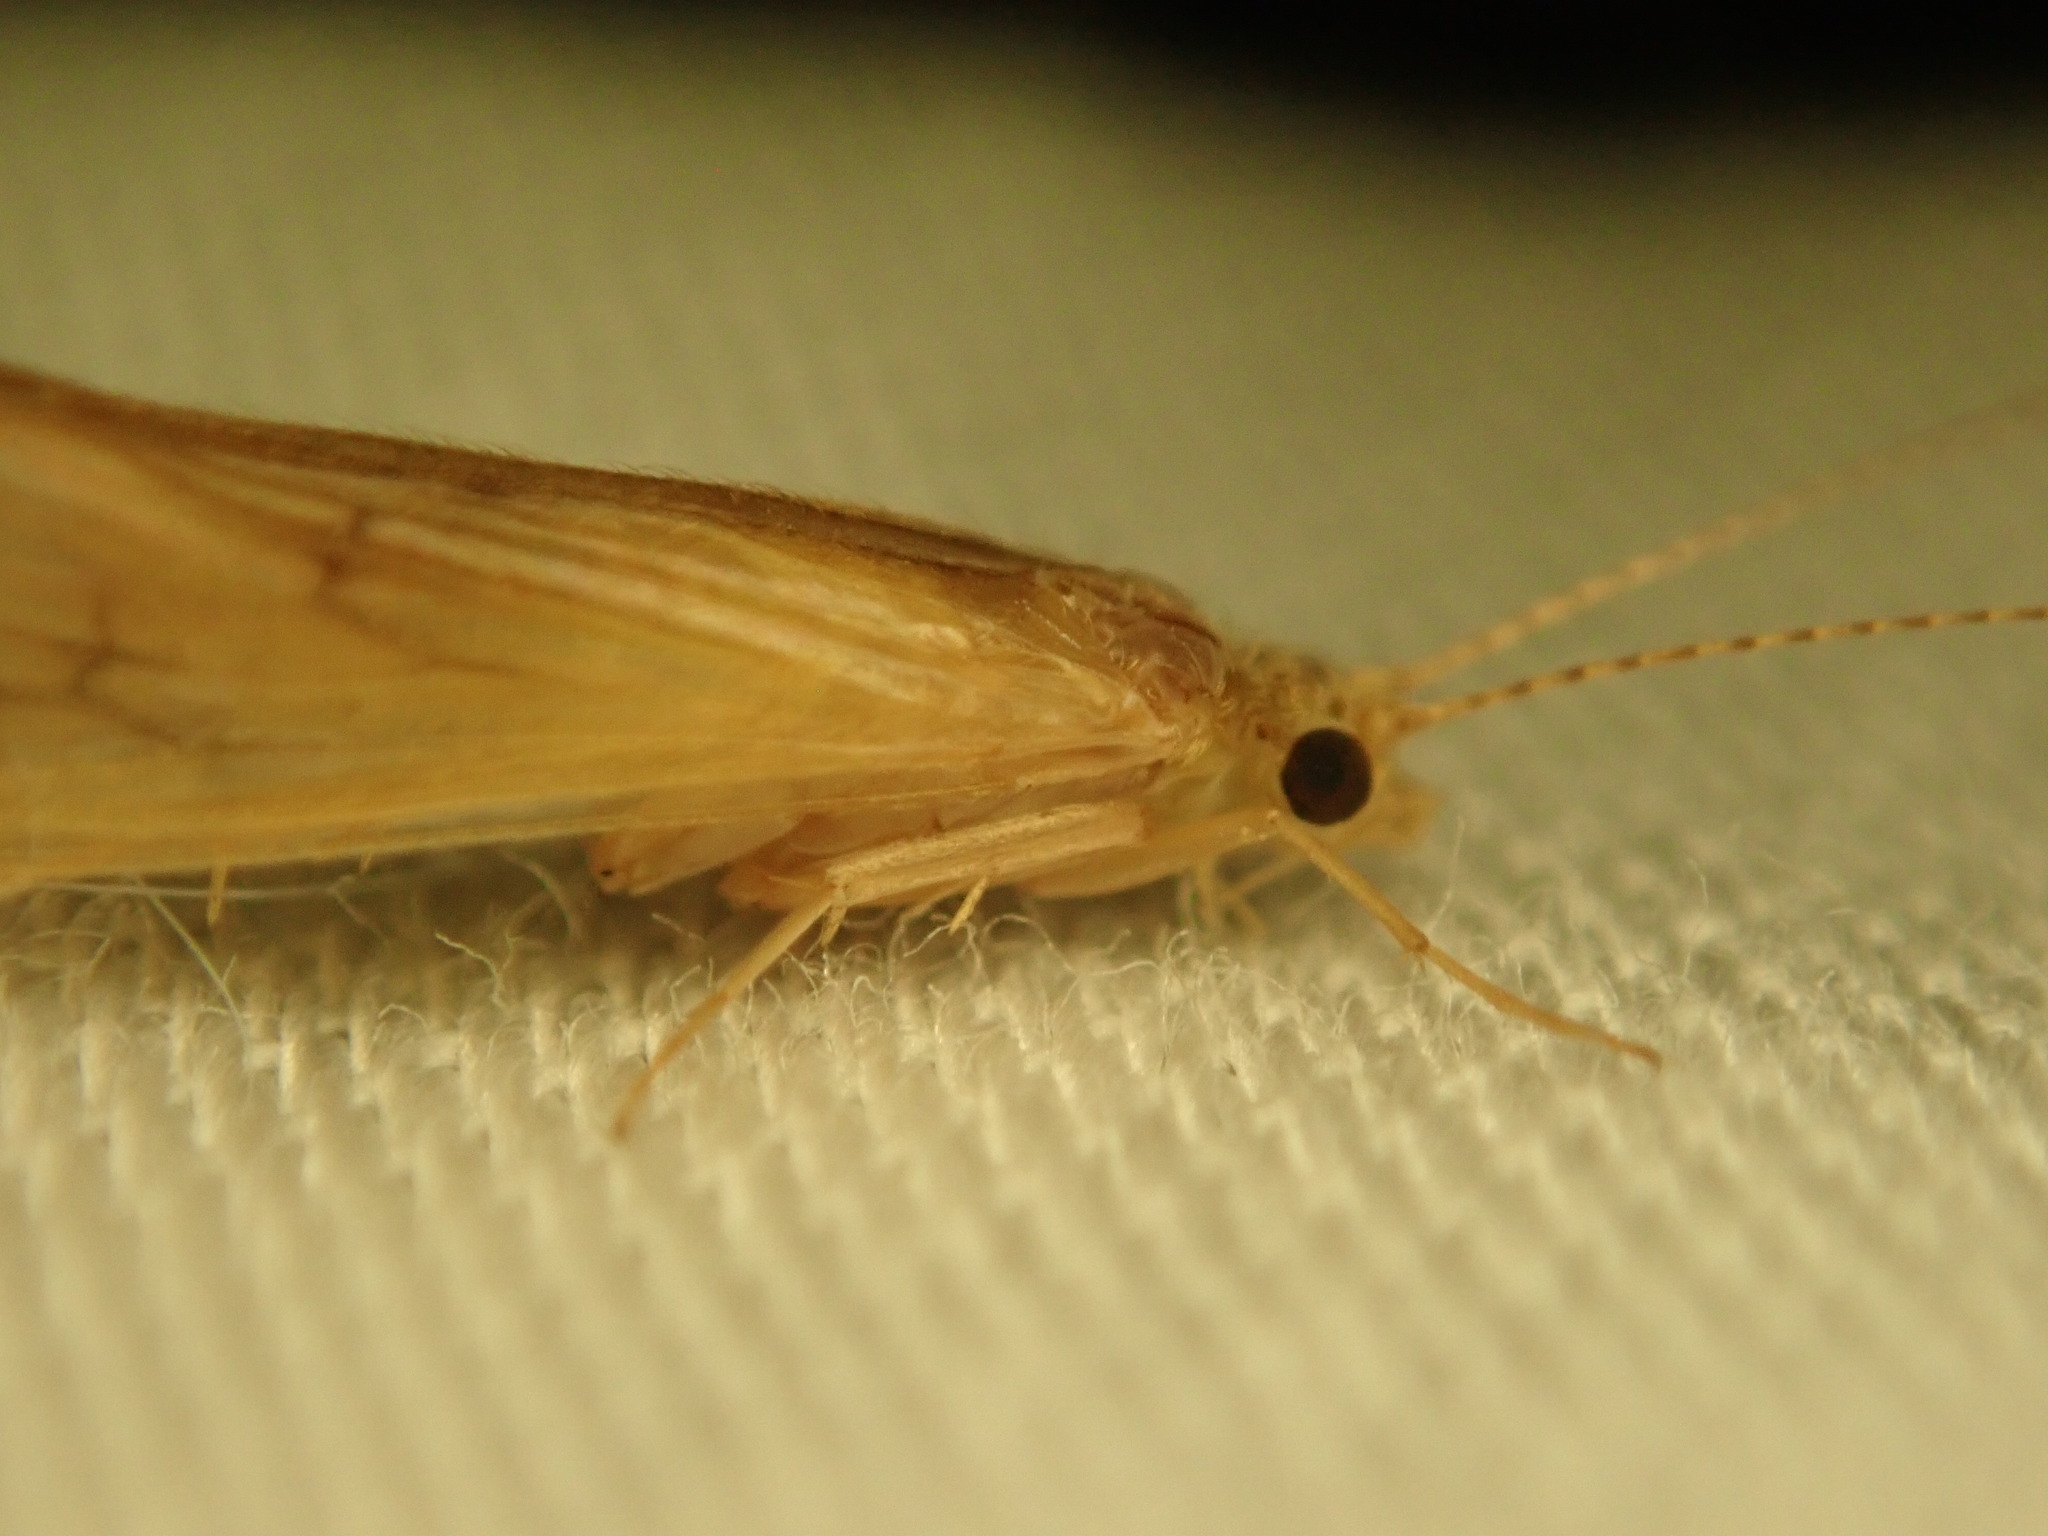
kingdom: Animalia
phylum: Arthropoda
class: Insecta
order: Trichoptera
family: Hydropsychidae
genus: Potamyia
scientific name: Potamyia flava
